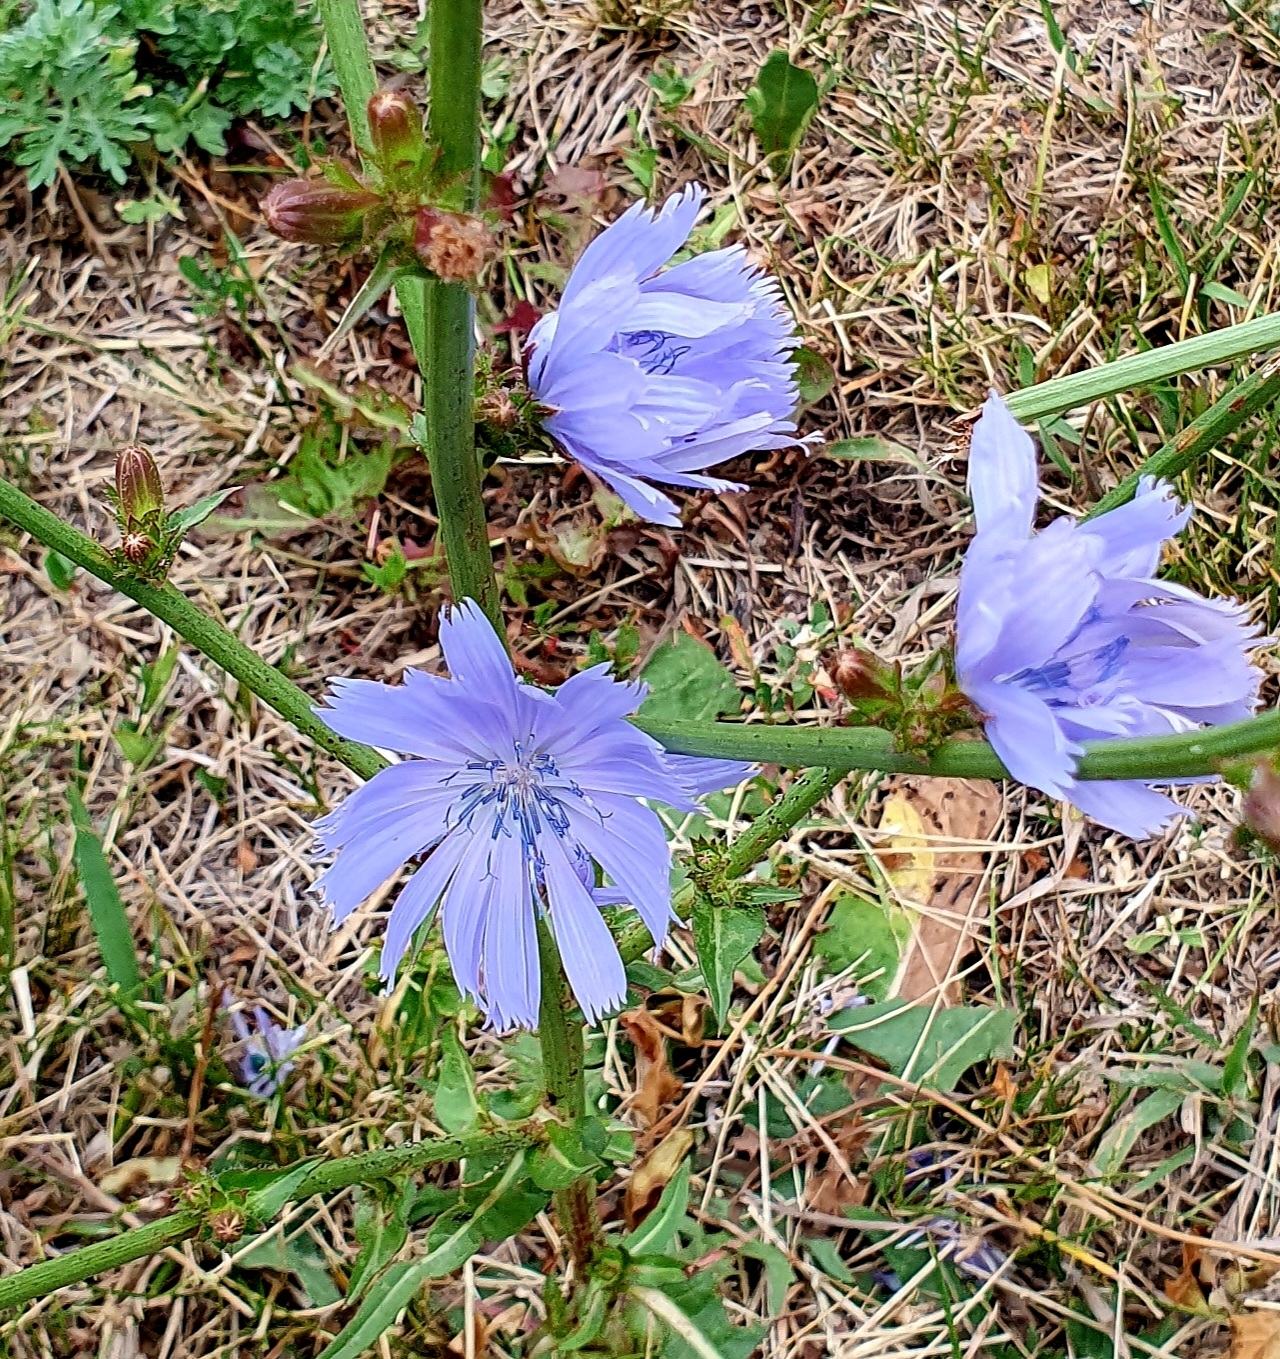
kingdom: Plantae
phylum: Tracheophyta
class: Magnoliopsida
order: Asterales
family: Asteraceae
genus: Cichorium
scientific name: Cichorium intybus
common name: Chicory
